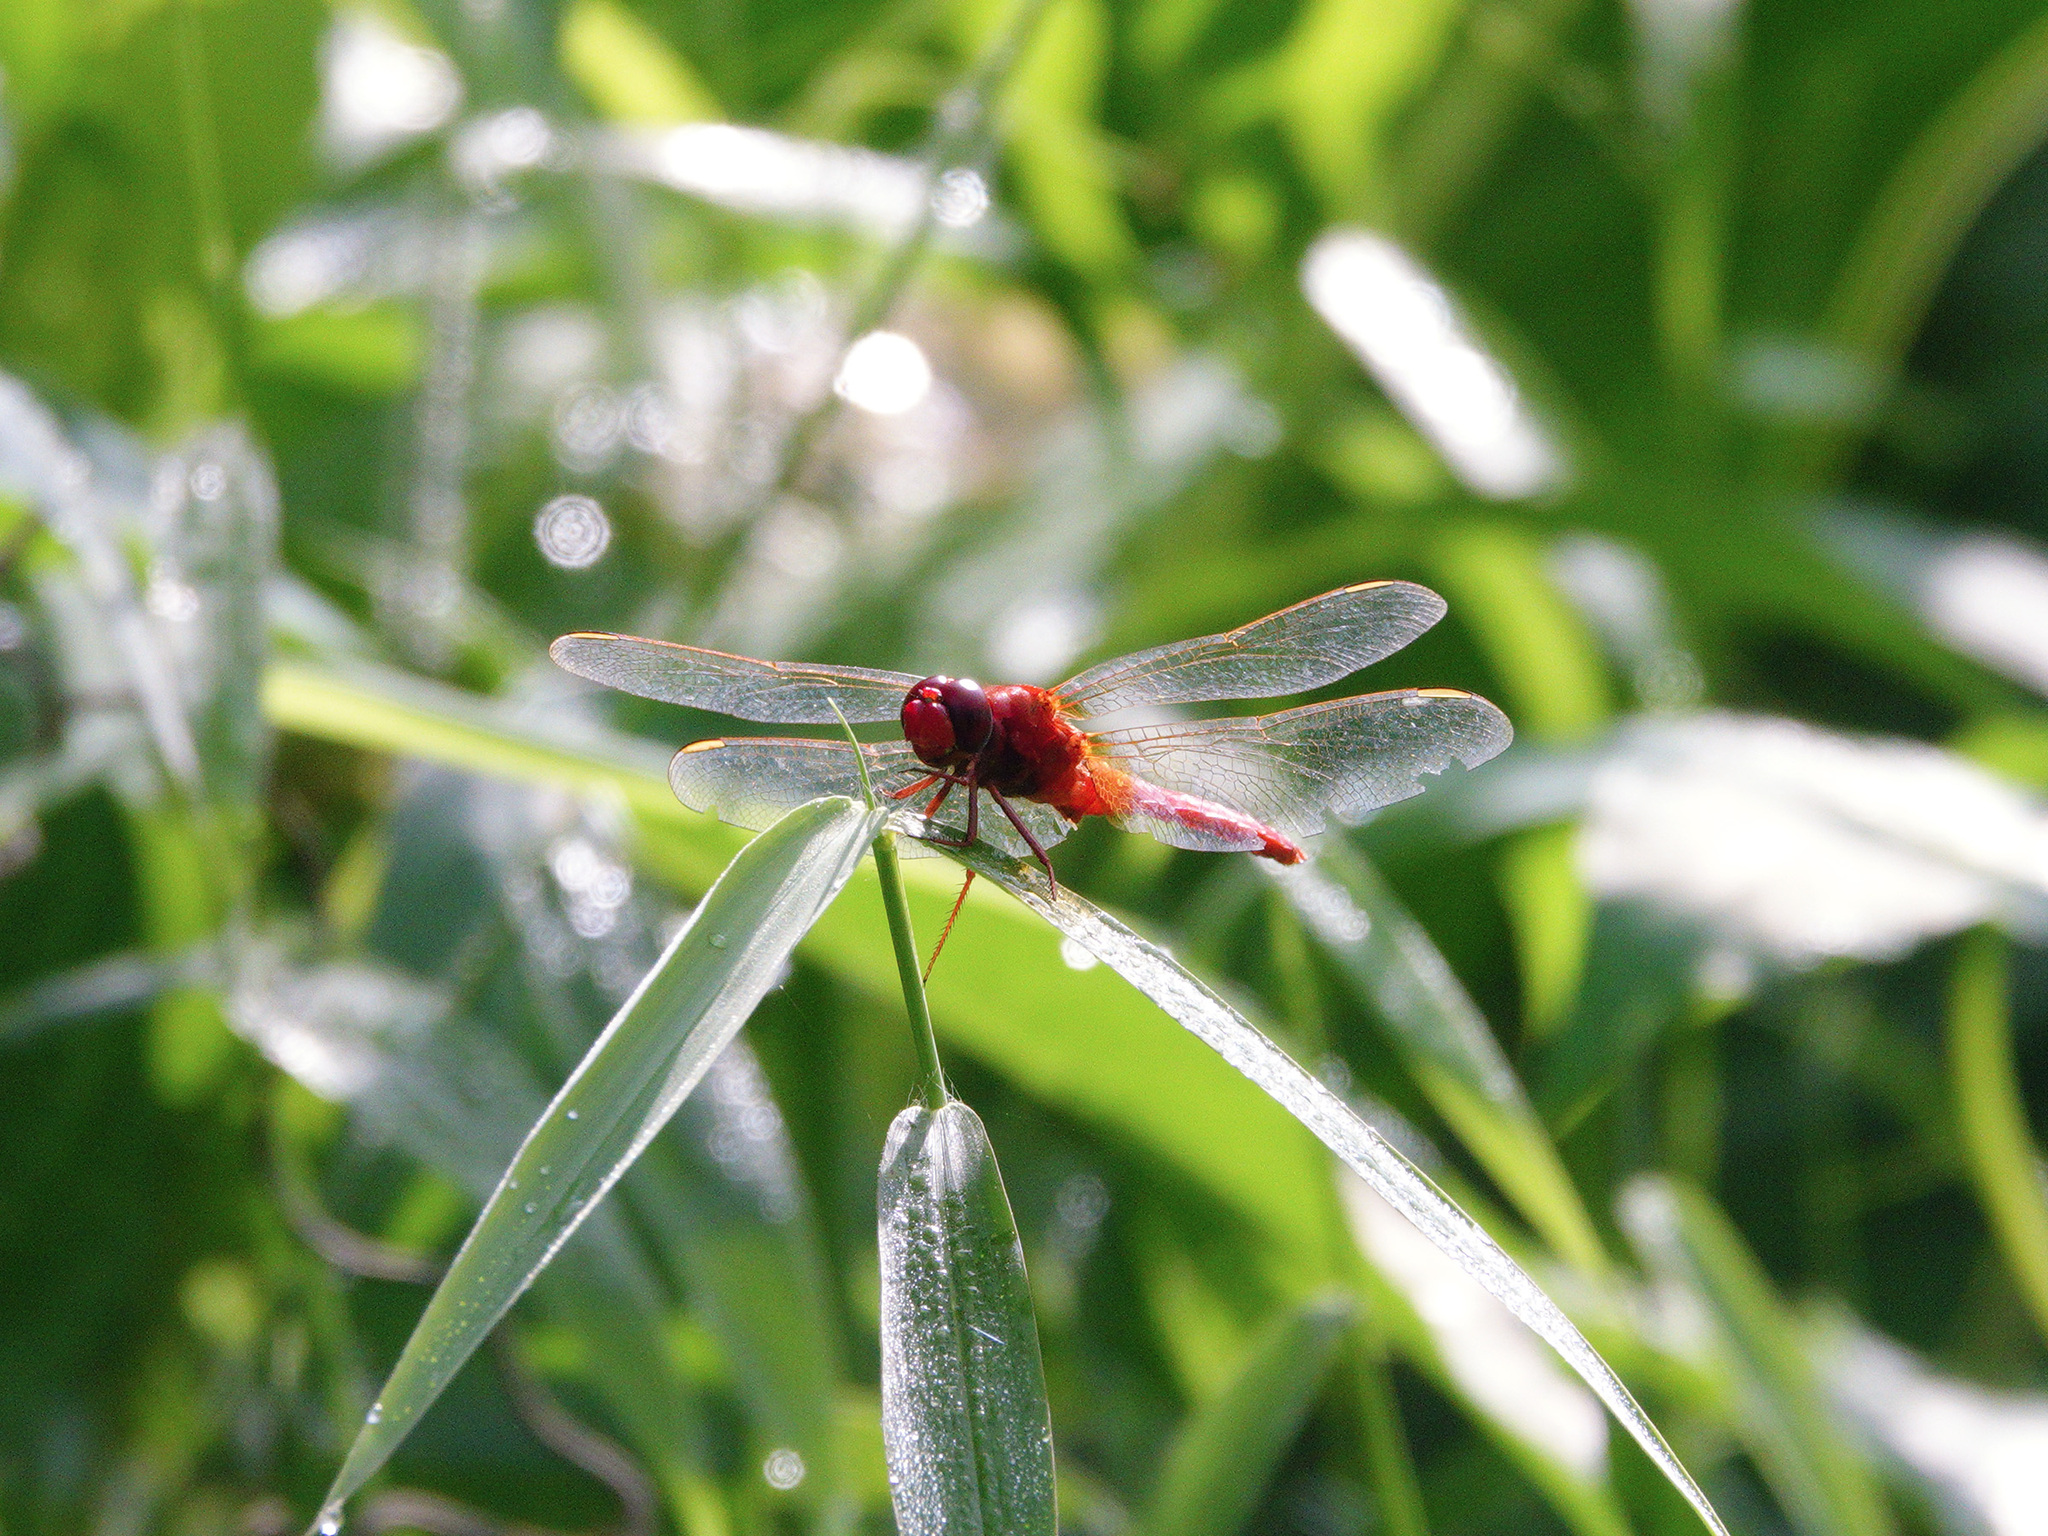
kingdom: Animalia
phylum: Arthropoda
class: Insecta
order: Odonata
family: Libellulidae
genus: Crocothemis
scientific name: Crocothemis servilia
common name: Scarlet skimmer
